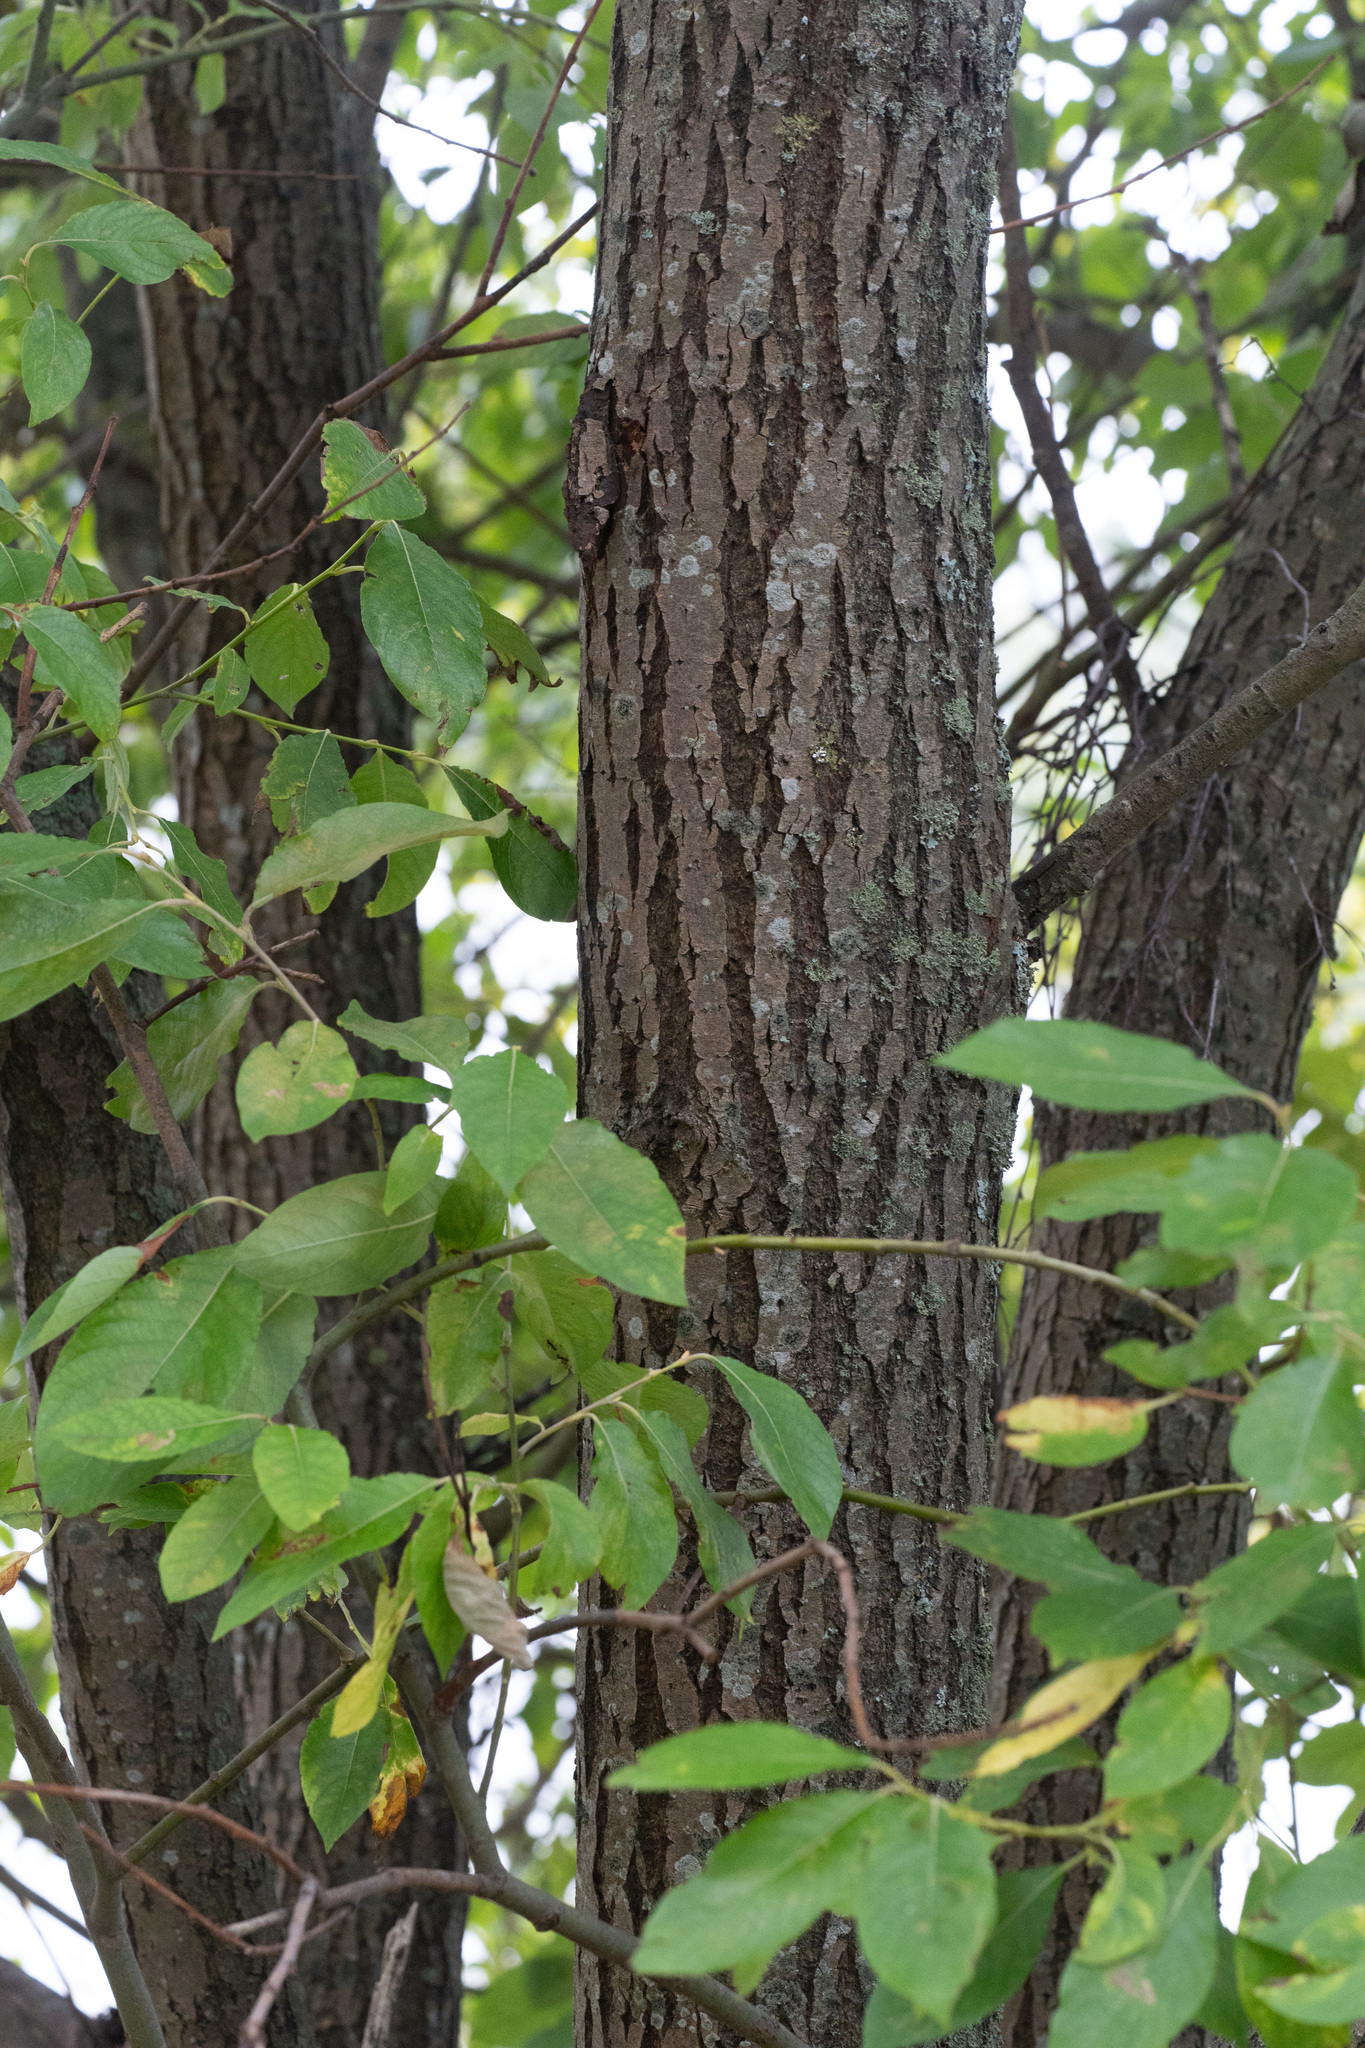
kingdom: Plantae
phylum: Tracheophyta
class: Magnoliopsida
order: Malpighiales
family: Salicaceae
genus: Salix
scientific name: Salix caprea
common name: Goat willow
